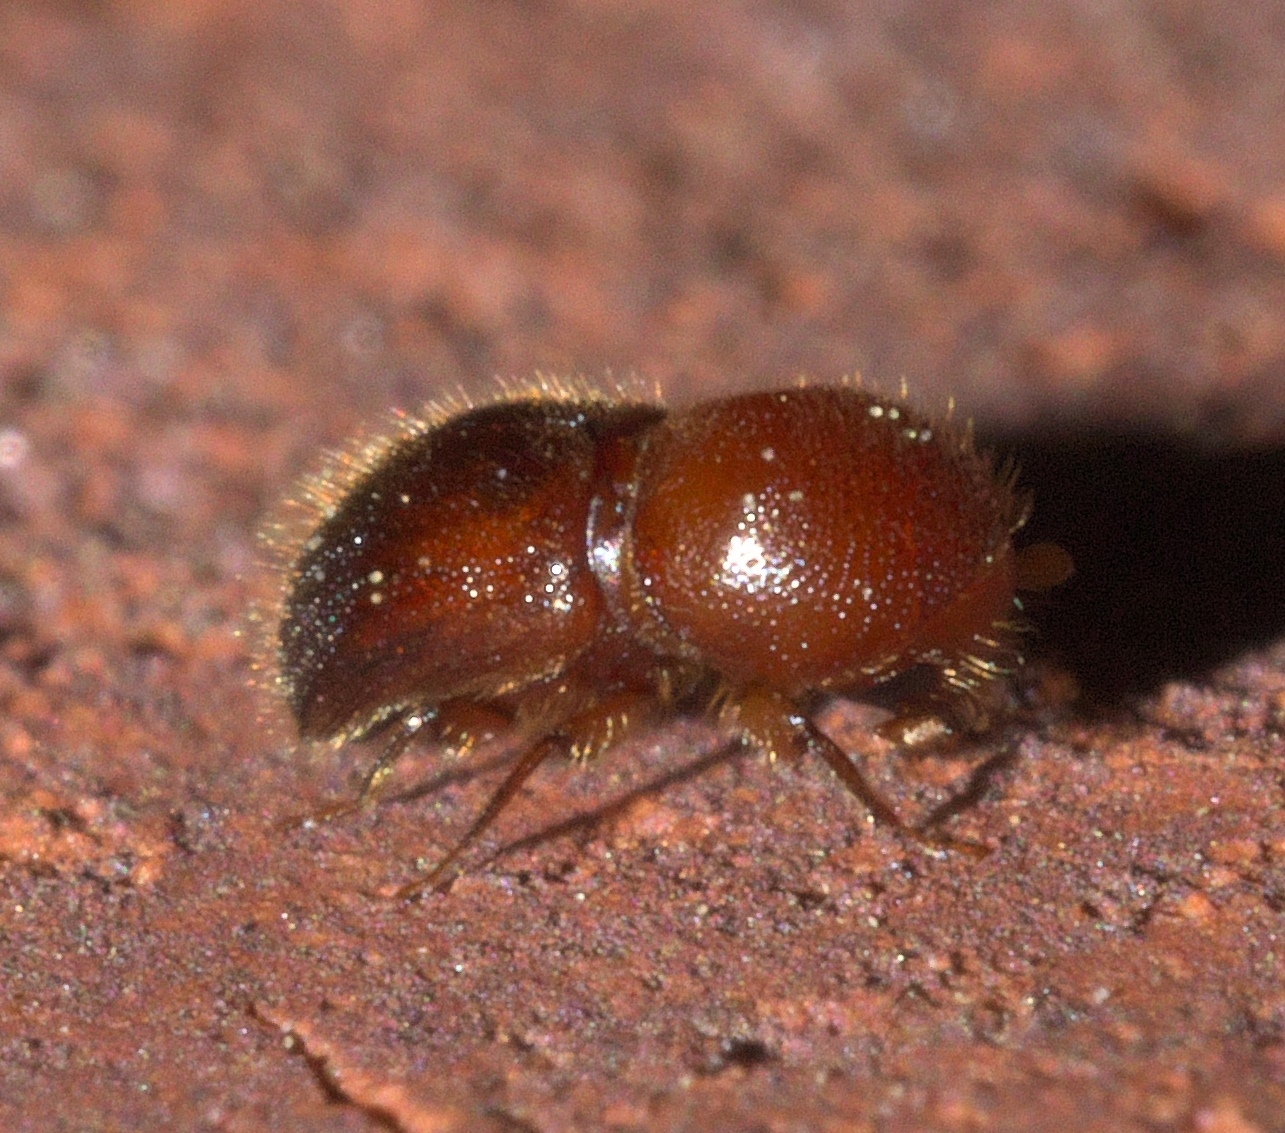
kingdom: Animalia
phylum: Arthropoda
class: Insecta
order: Coleoptera
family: Curculionidae
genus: Xylosandrus
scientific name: Xylosandrus crassiusculus
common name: Granulate ambrosia beetle
